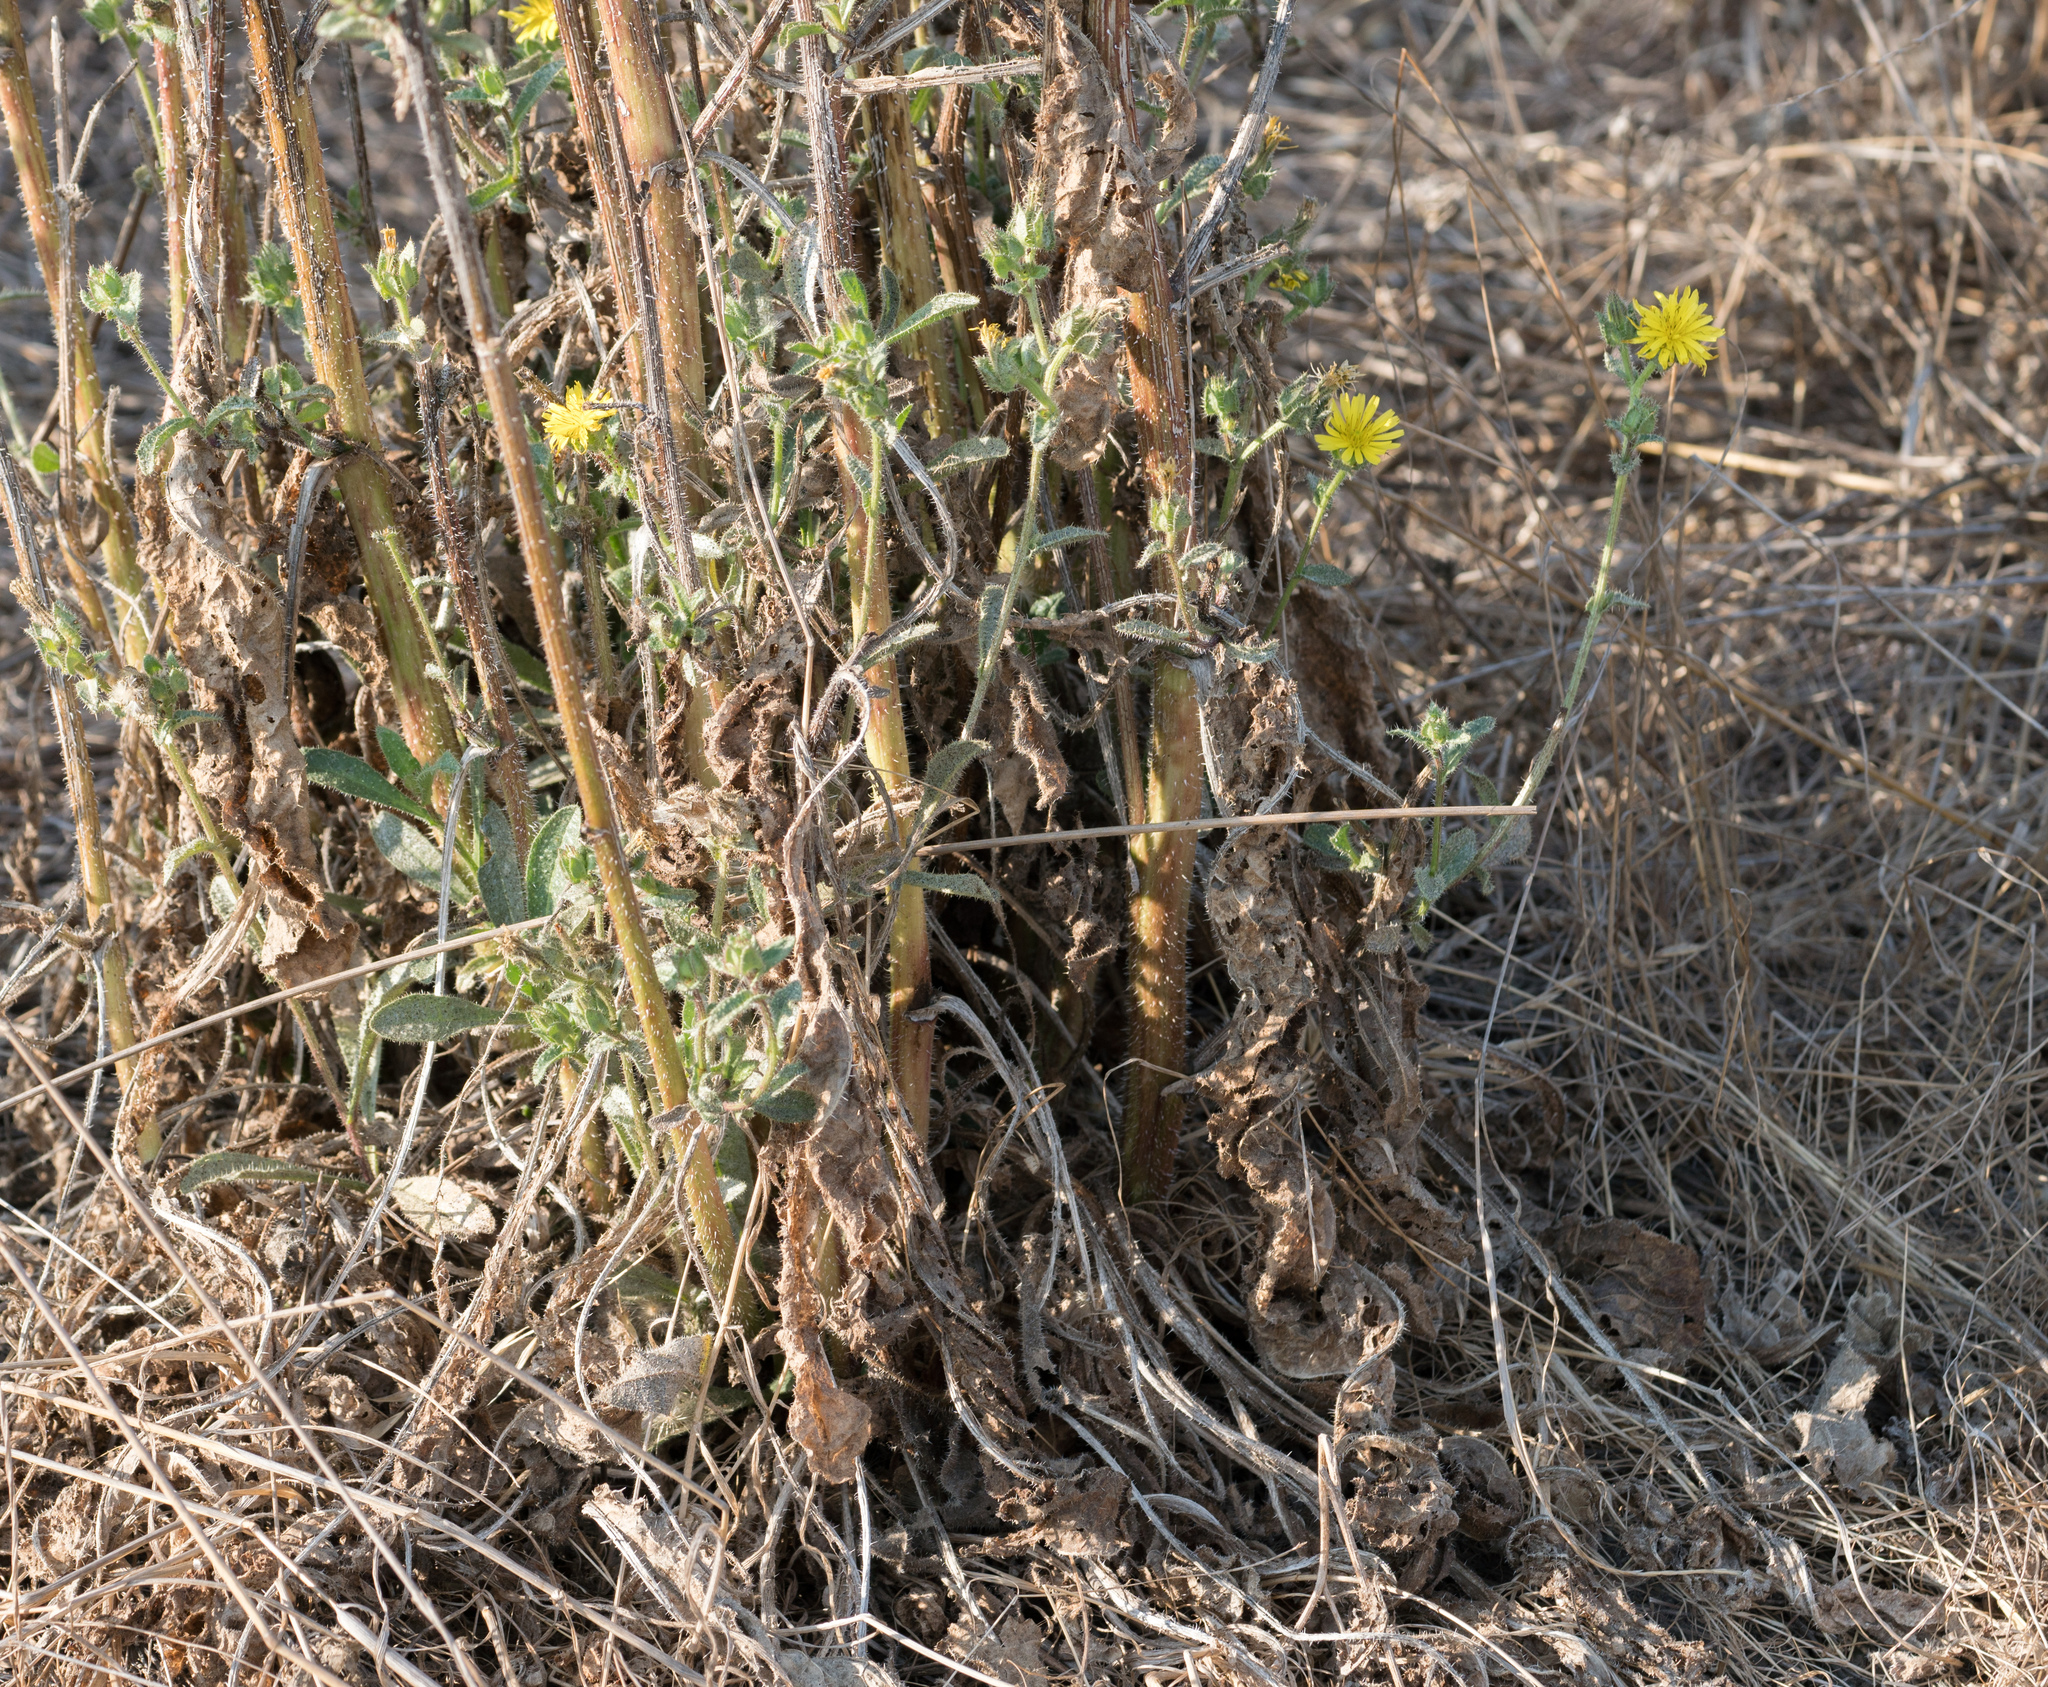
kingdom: Plantae
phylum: Tracheophyta
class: Magnoliopsida
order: Asterales
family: Asteraceae
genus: Helminthotheca
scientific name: Helminthotheca echioides
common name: Ox-tongue
